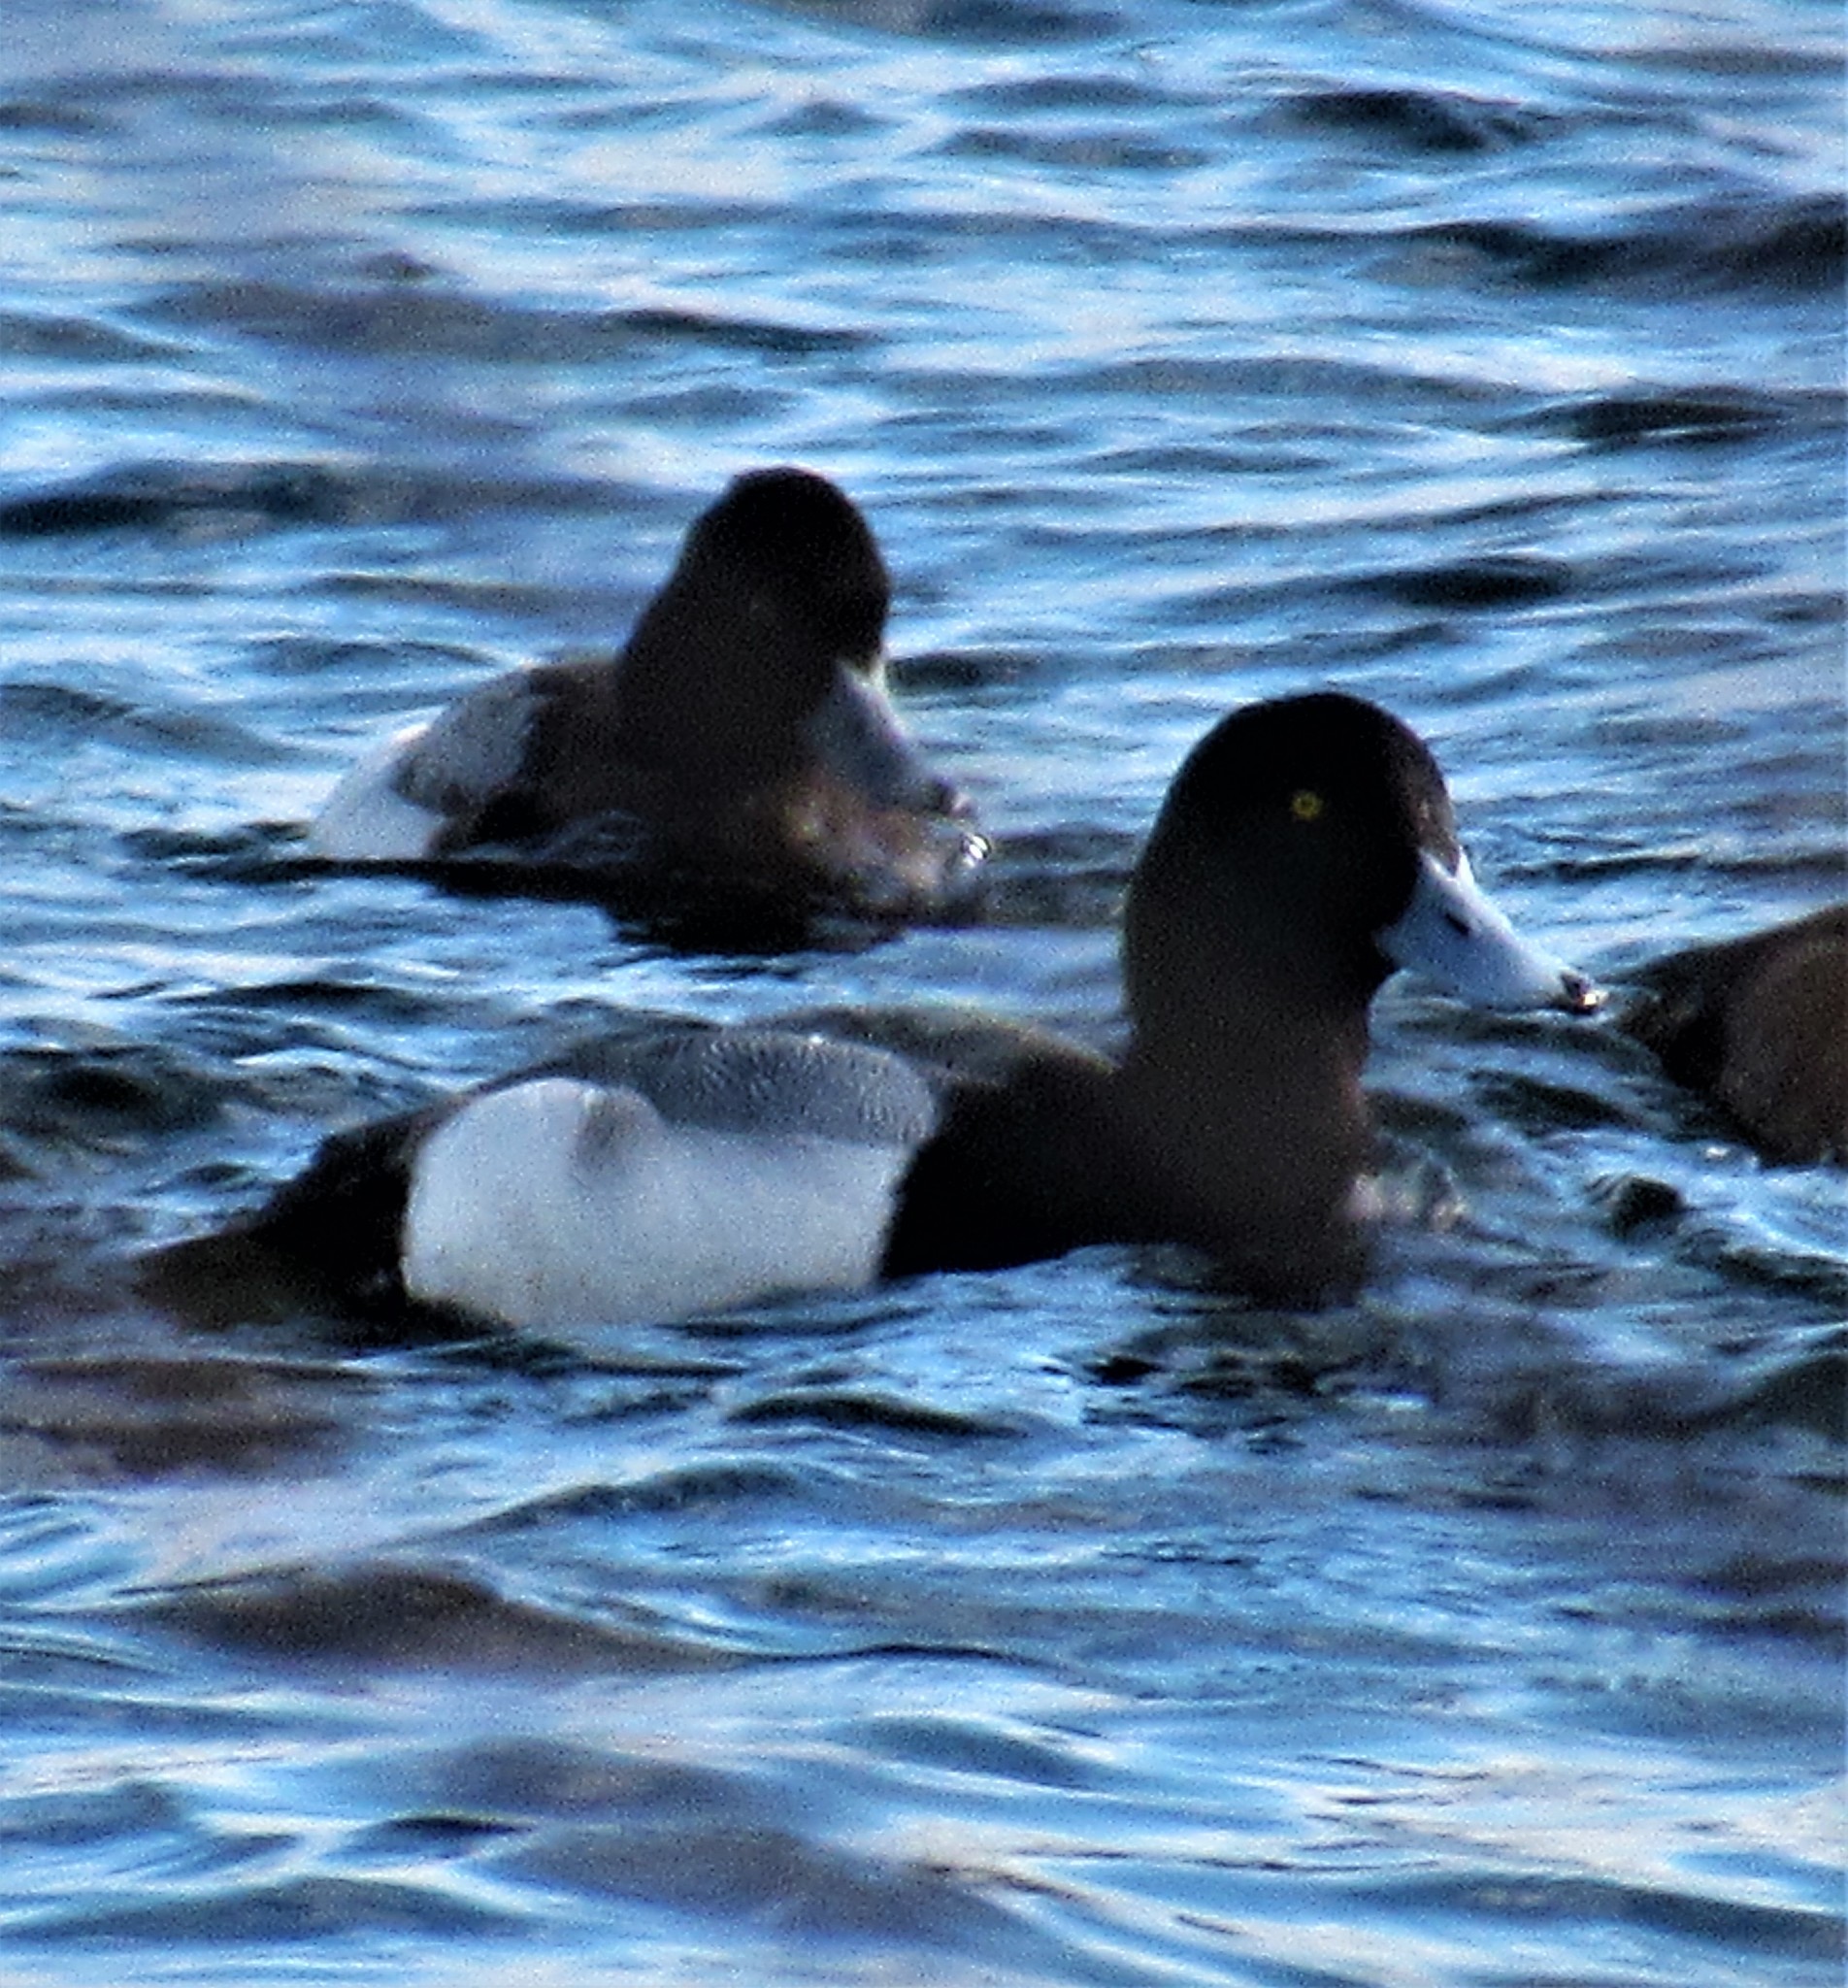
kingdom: Animalia
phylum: Chordata
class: Aves
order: Anseriformes
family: Anatidae
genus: Aythya
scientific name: Aythya marila
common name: Greater scaup
